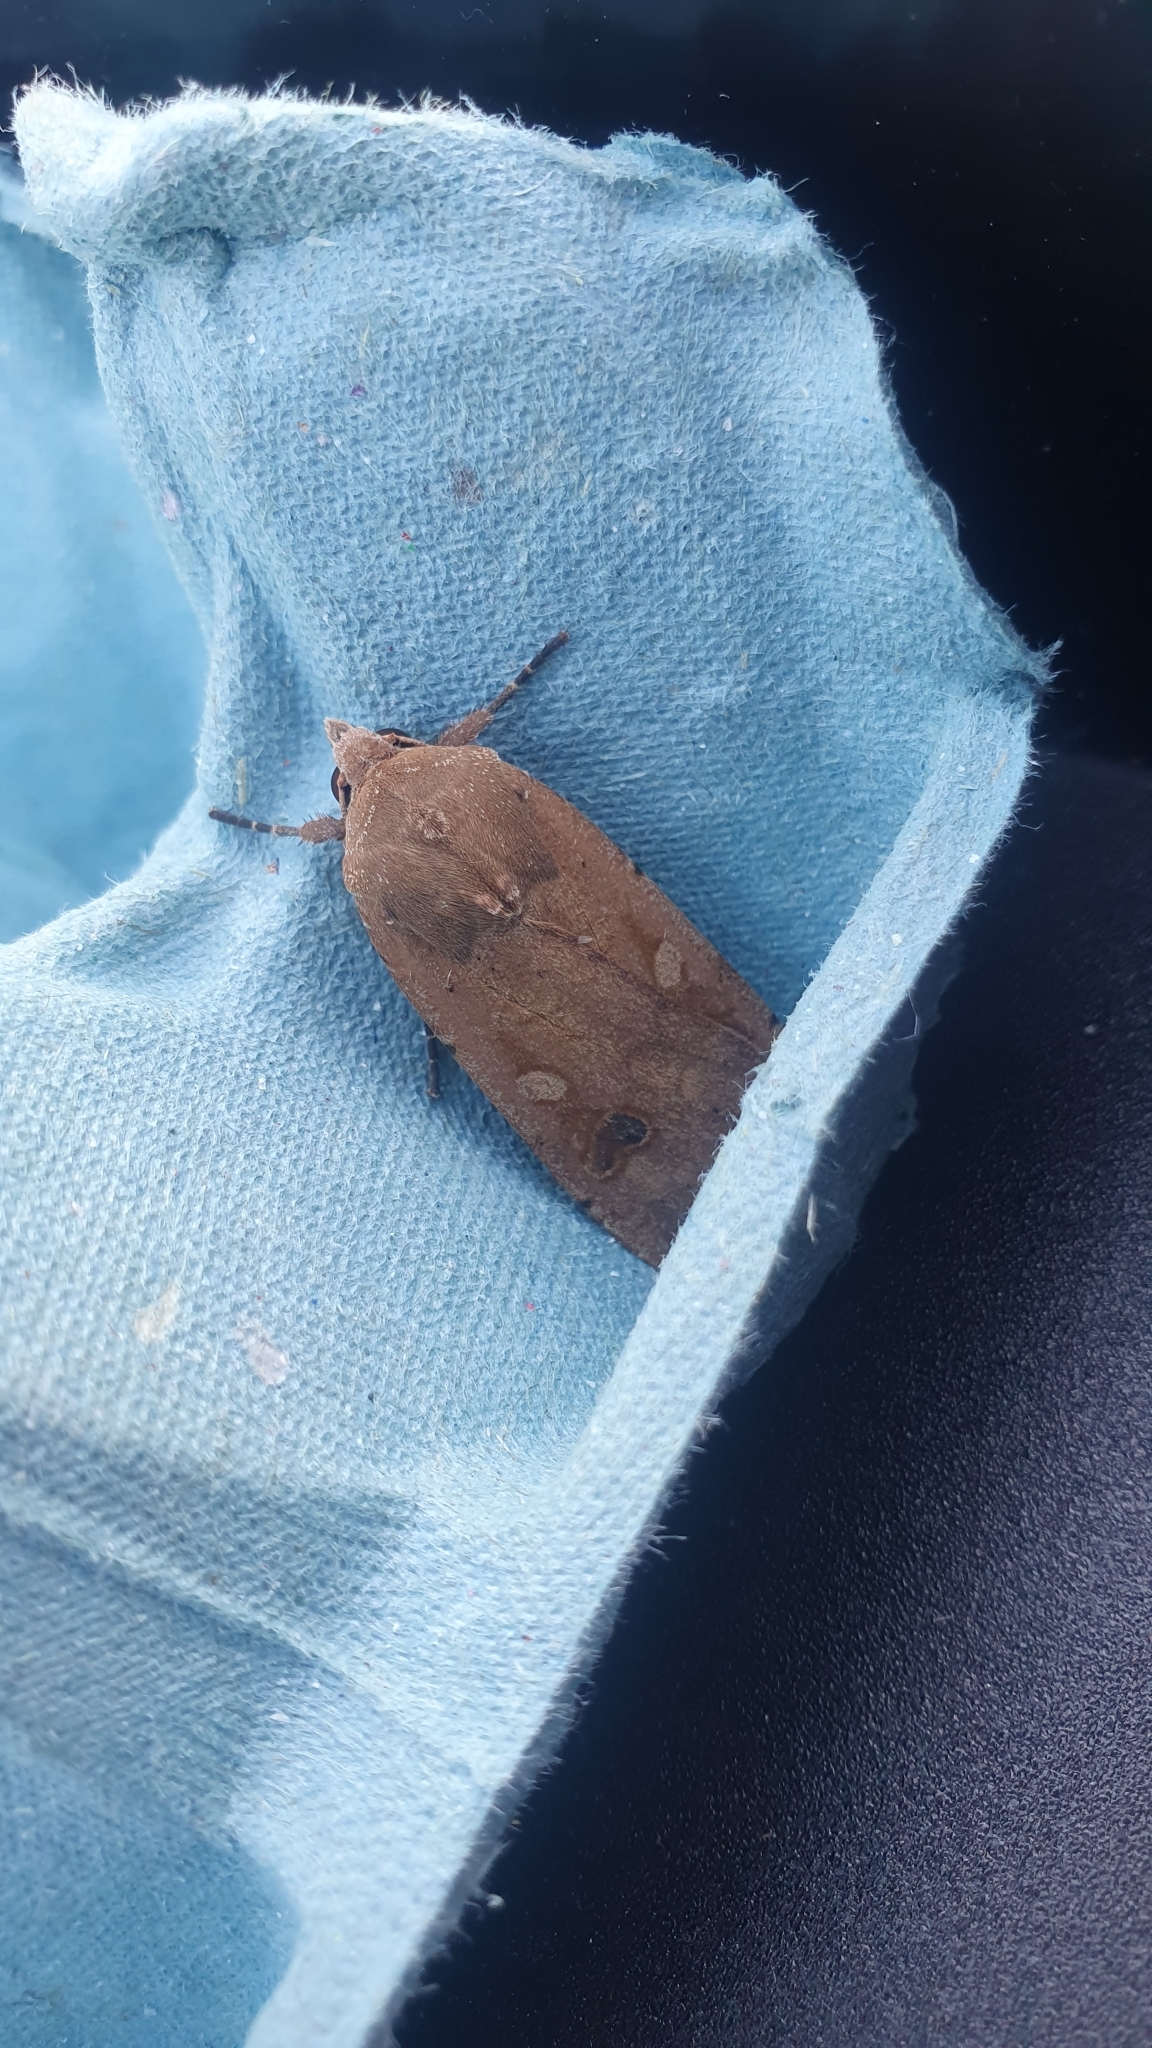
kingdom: Animalia
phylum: Arthropoda
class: Insecta
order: Lepidoptera
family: Noctuidae
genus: Noctua
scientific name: Noctua pronuba
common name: Large yellow underwing
